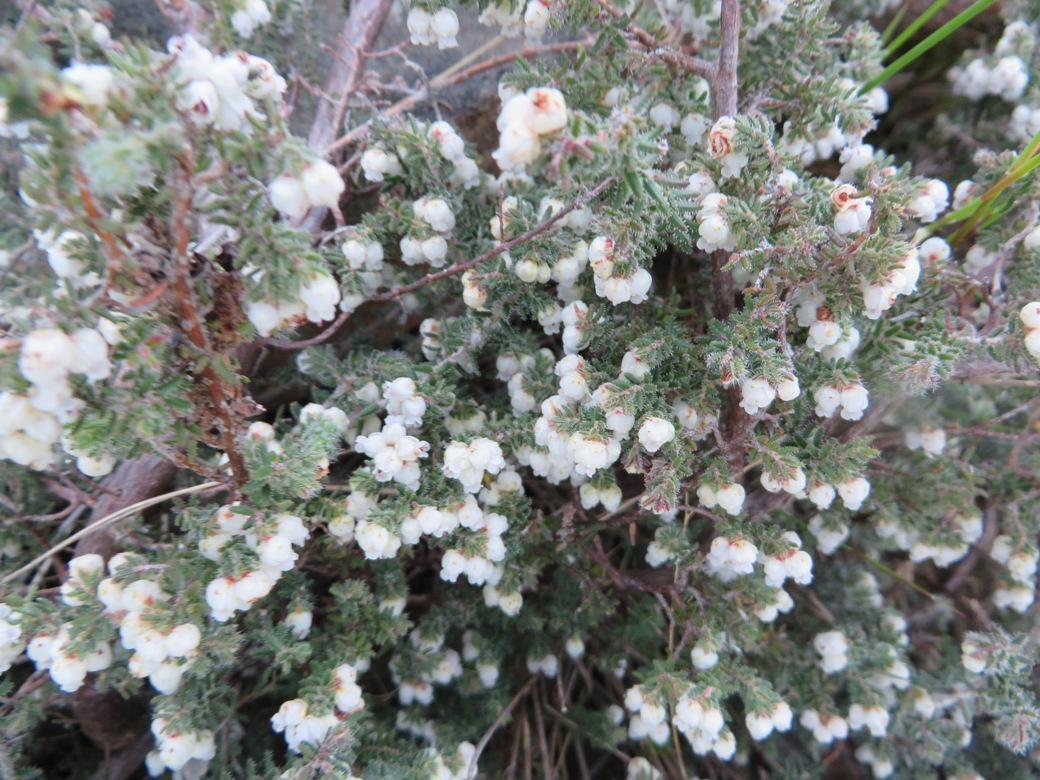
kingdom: Plantae
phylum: Tracheophyta
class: Magnoliopsida
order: Ericales
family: Ericaceae
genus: Erica
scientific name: Erica totta
